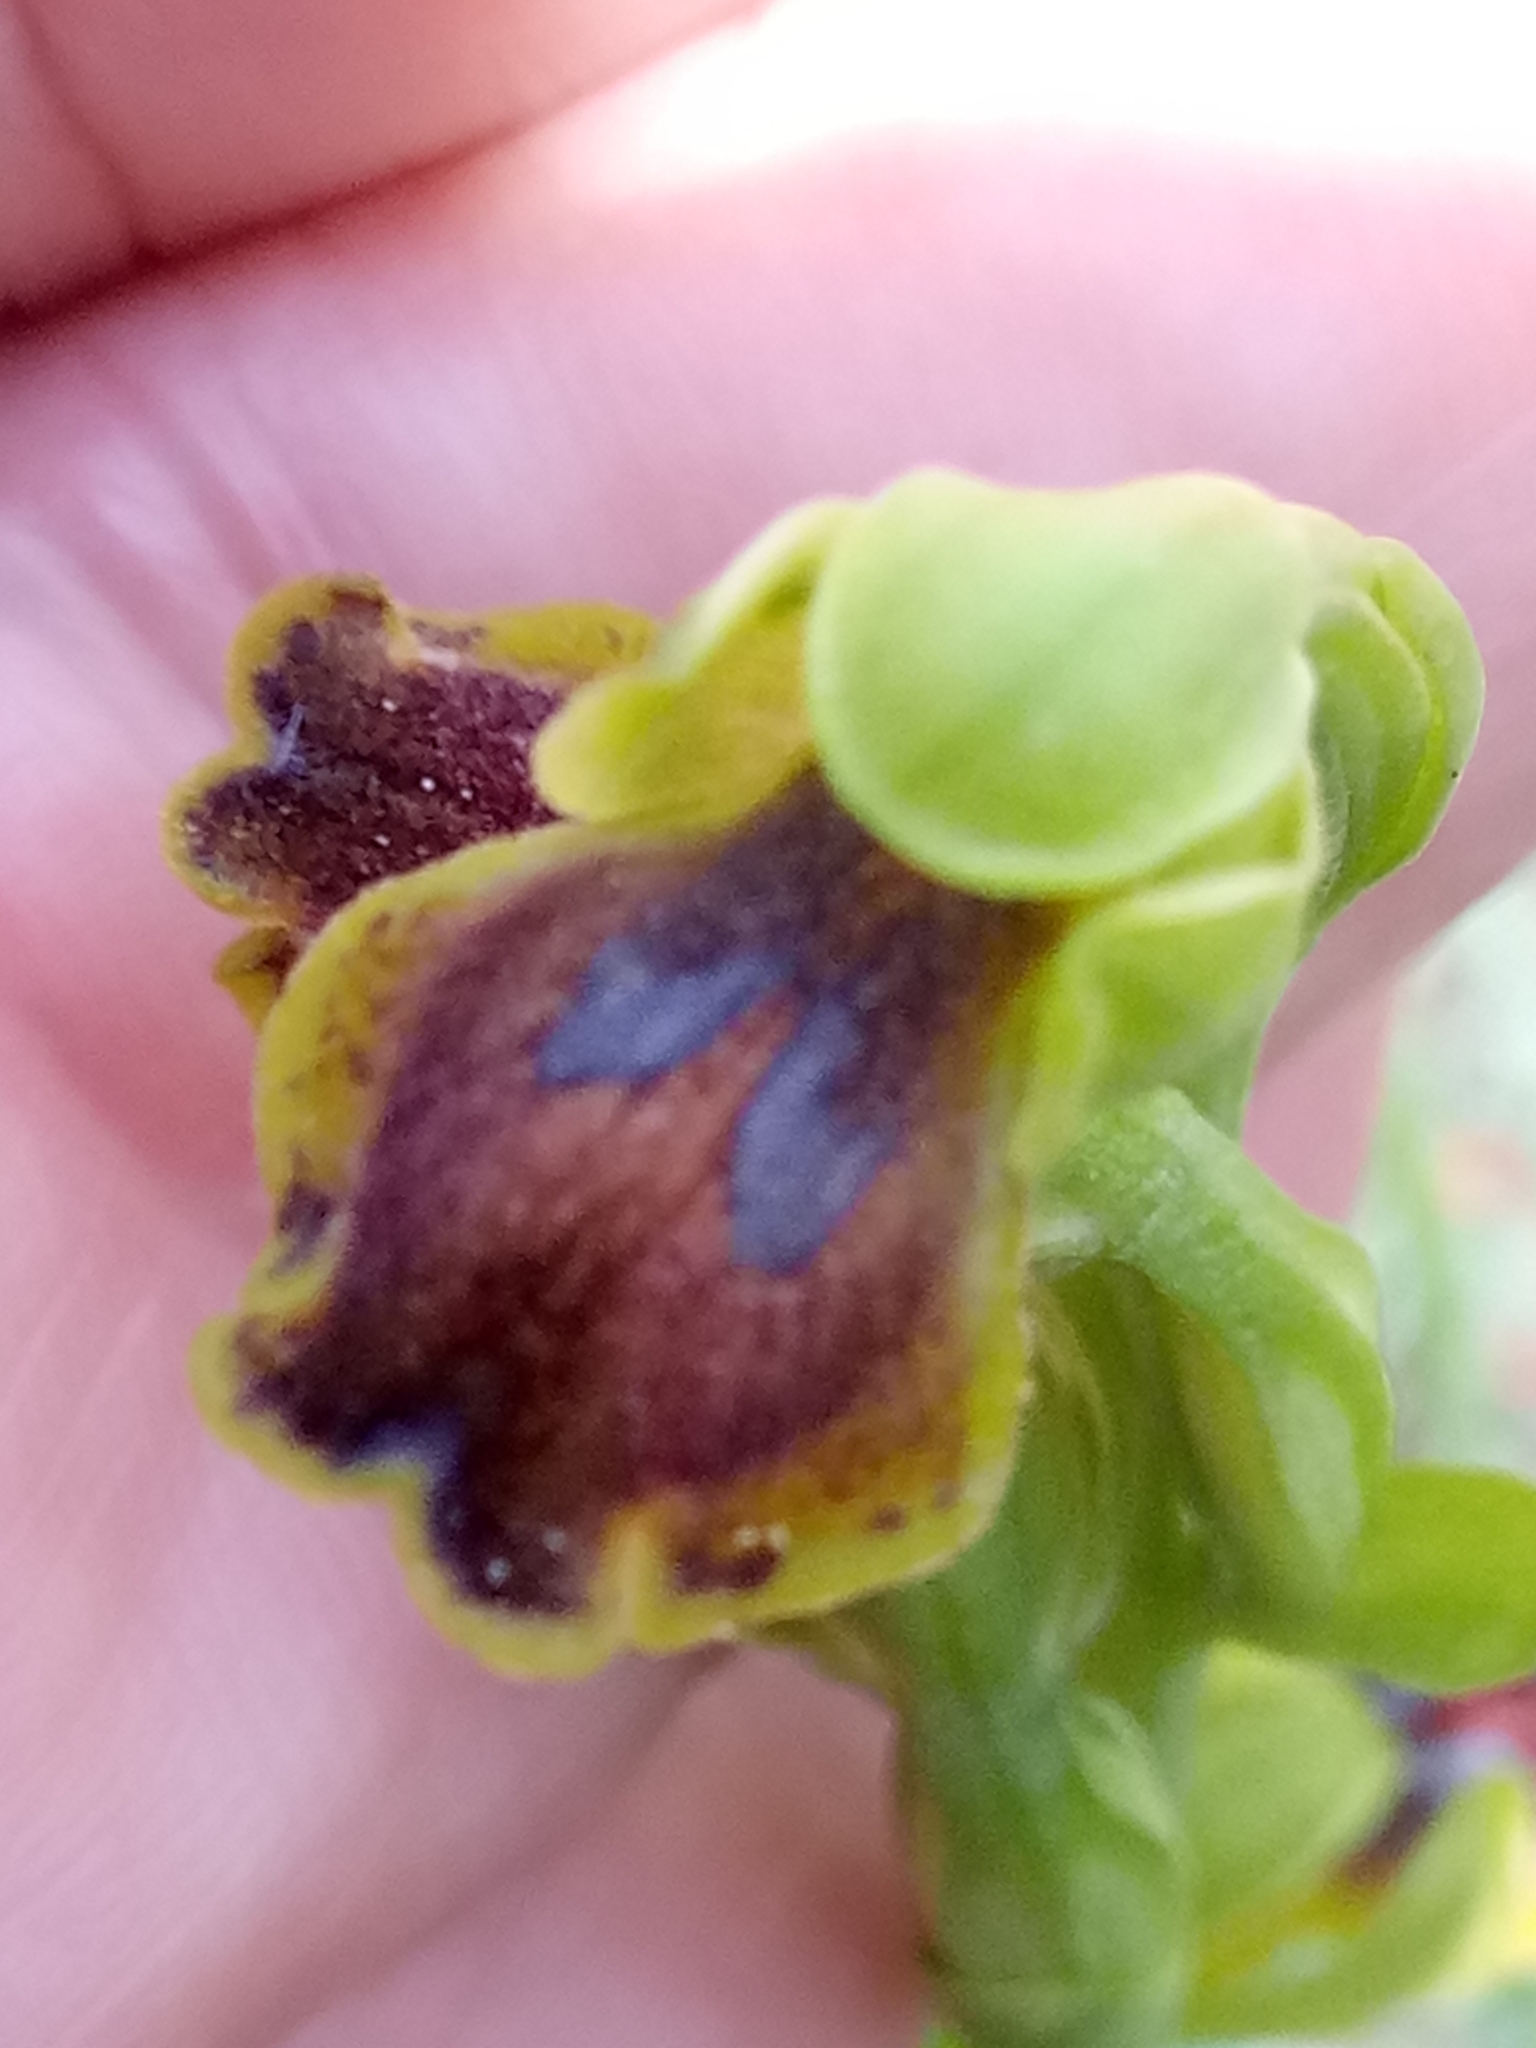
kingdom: Plantae
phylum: Tracheophyta
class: Liliopsida
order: Asparagales
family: Orchidaceae
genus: Ophrys
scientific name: Ophrys battandieri
